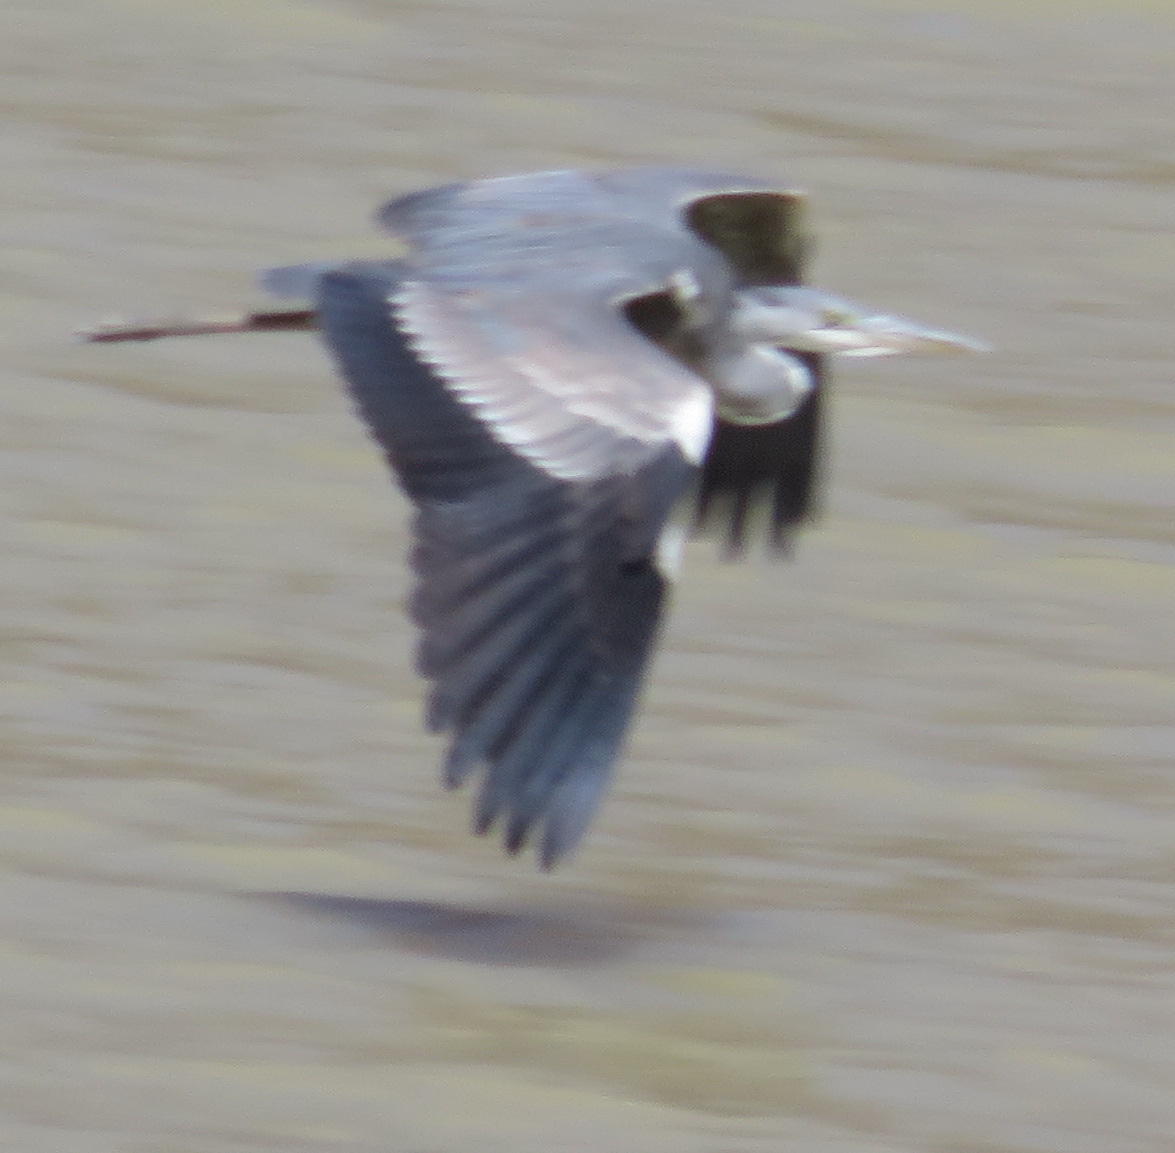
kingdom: Animalia
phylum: Chordata
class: Aves
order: Pelecaniformes
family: Ardeidae
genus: Ardea
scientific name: Ardea cinerea
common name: Grey heron
